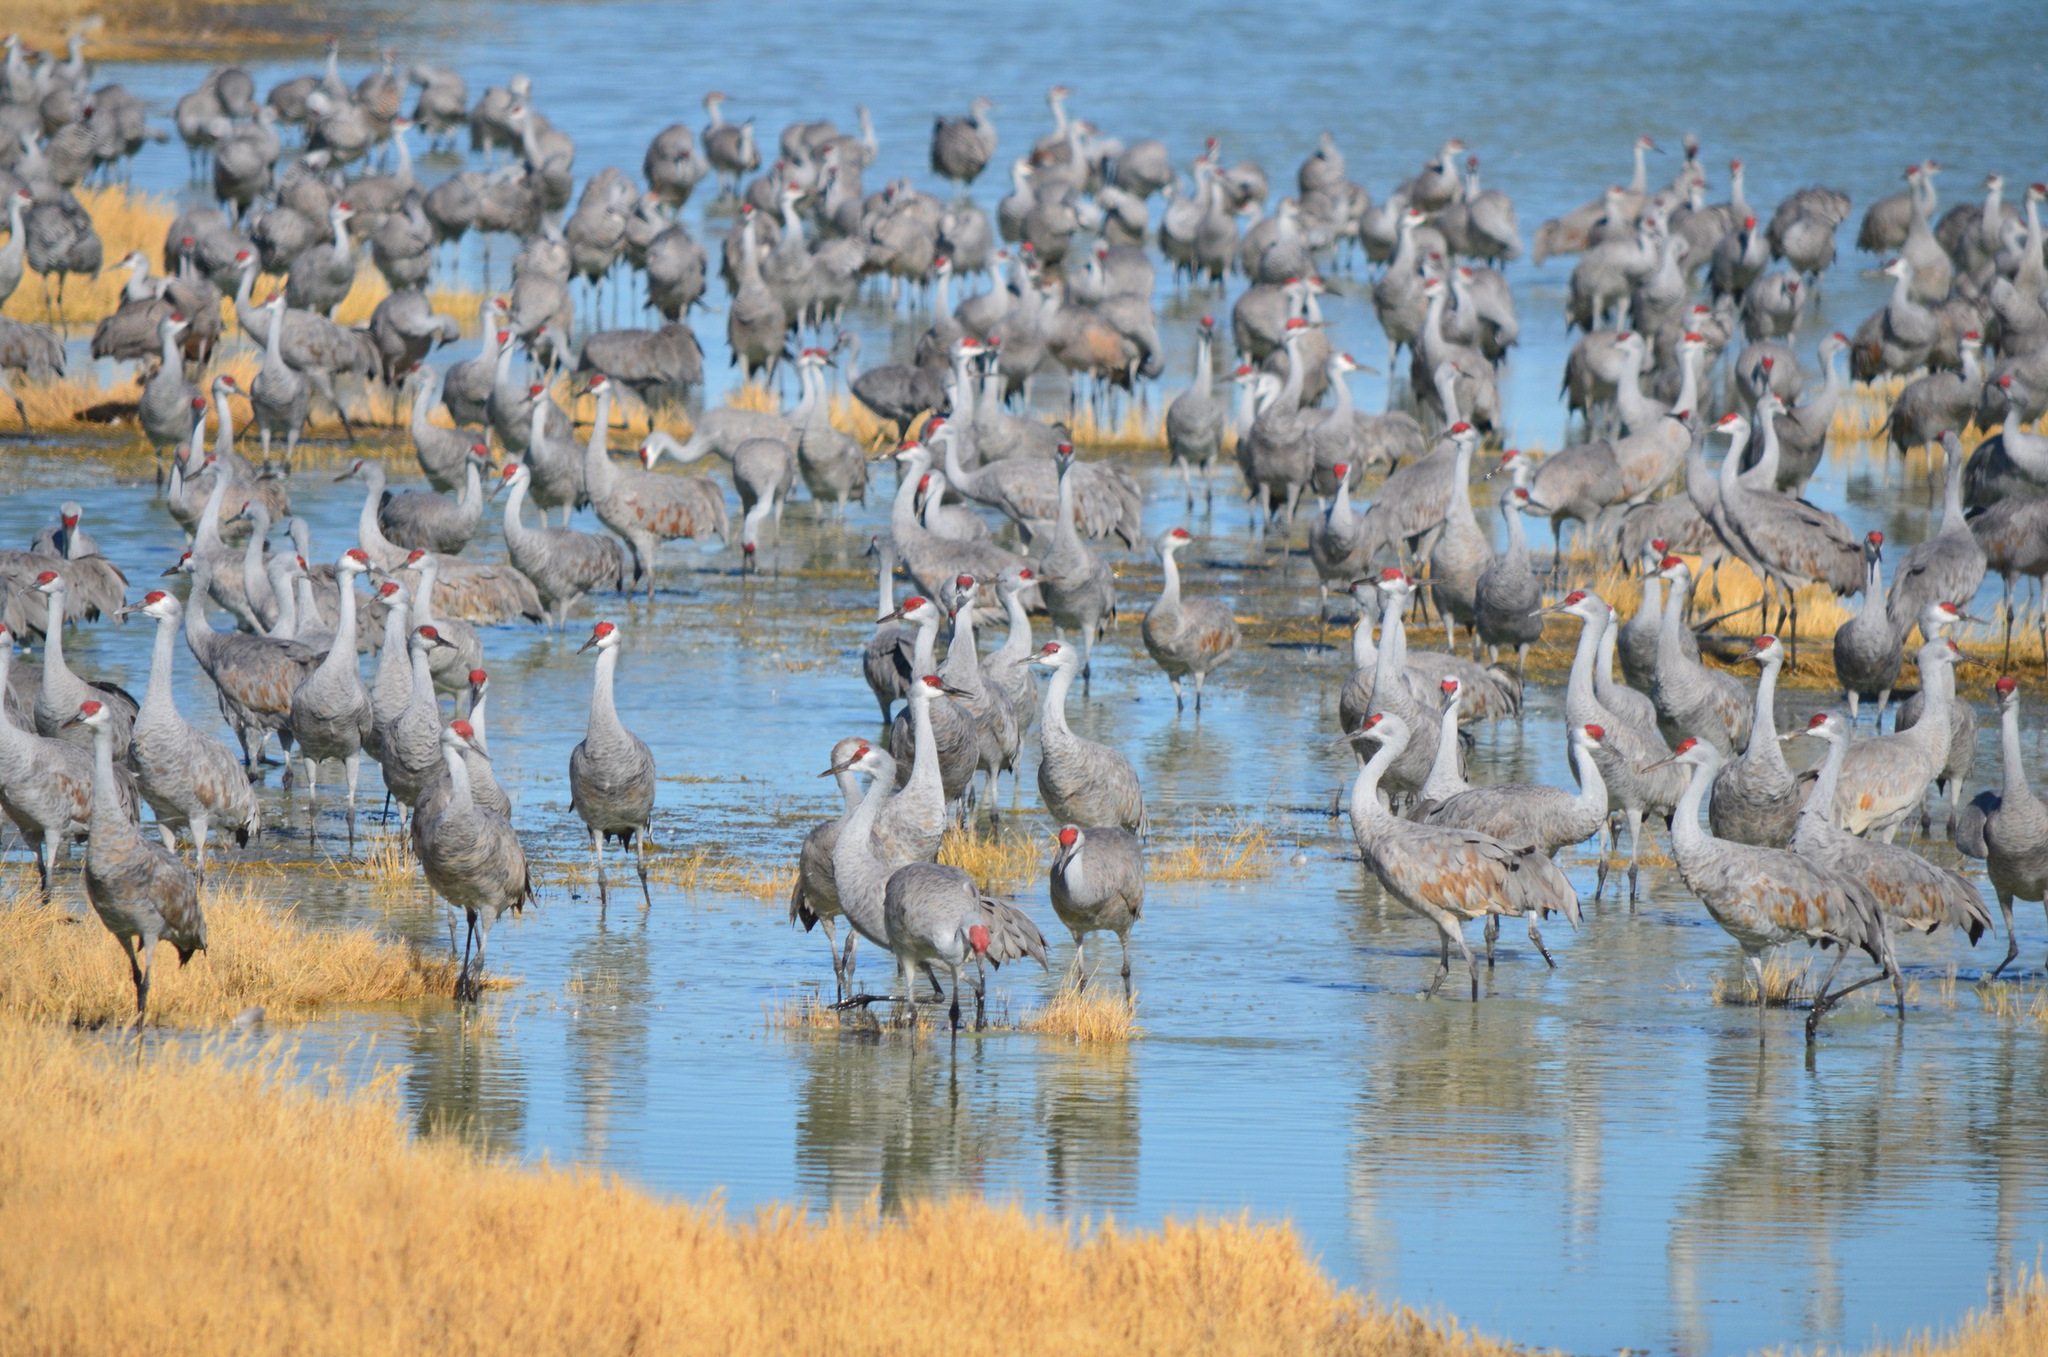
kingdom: Animalia
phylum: Chordata
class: Aves
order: Gruiformes
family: Gruidae
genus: Grus
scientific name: Grus canadensis
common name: Sandhill crane
